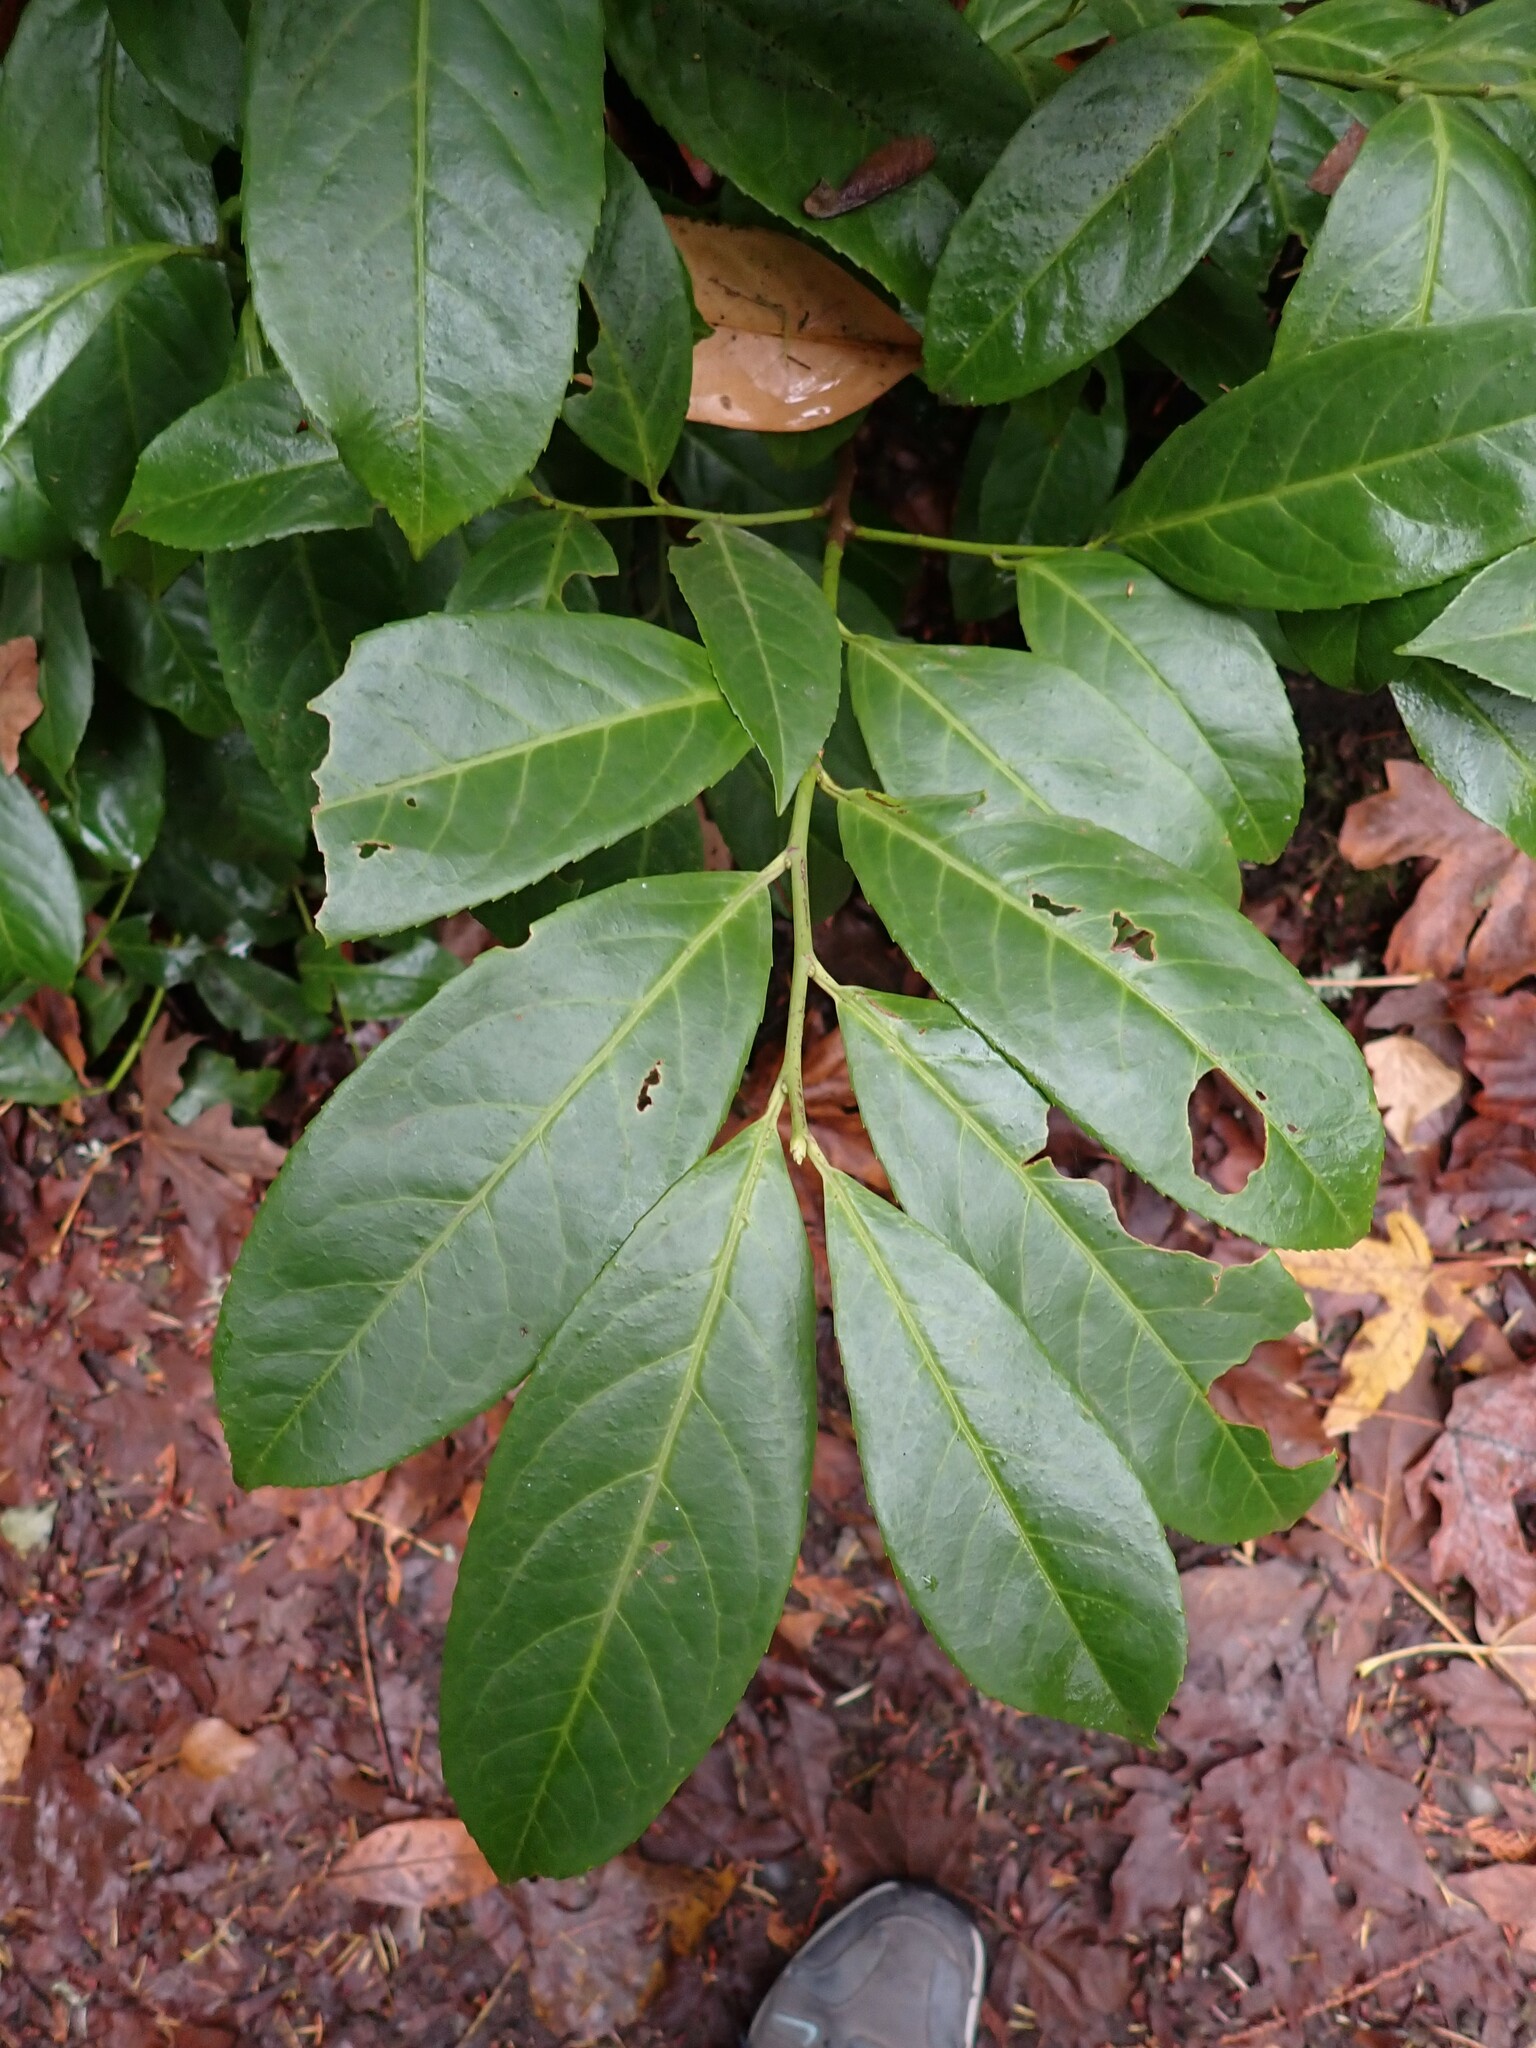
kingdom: Plantae
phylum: Tracheophyta
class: Magnoliopsida
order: Rosales
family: Rosaceae
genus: Prunus
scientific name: Prunus laurocerasus
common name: Cherry laurel
